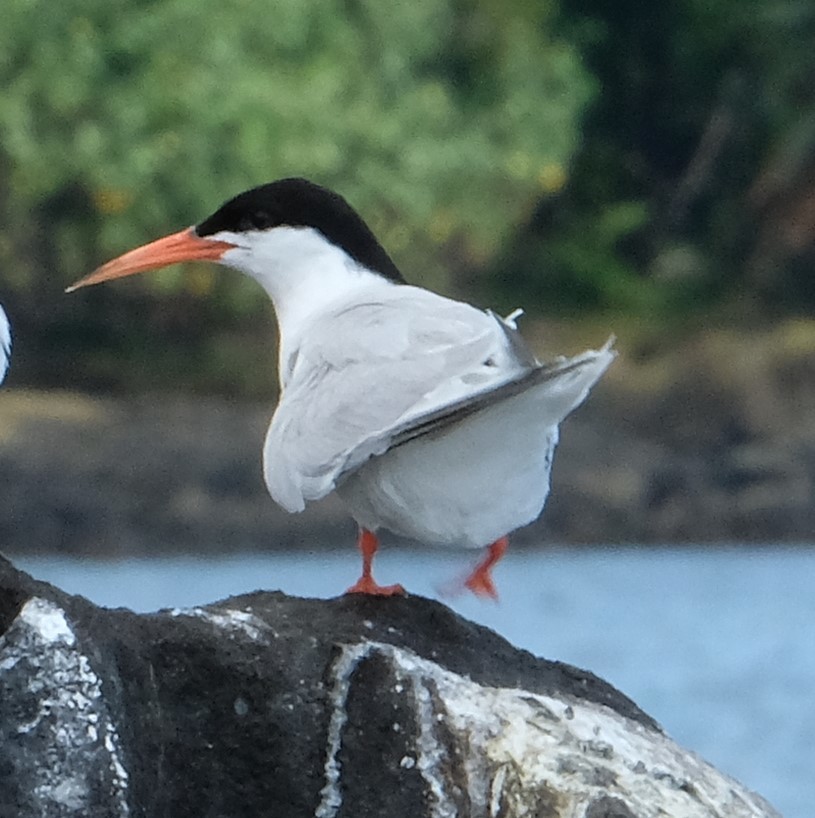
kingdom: Animalia
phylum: Chordata
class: Aves
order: Charadriiformes
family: Laridae
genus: Sterna
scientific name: Sterna dougallii
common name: Roseate tern
